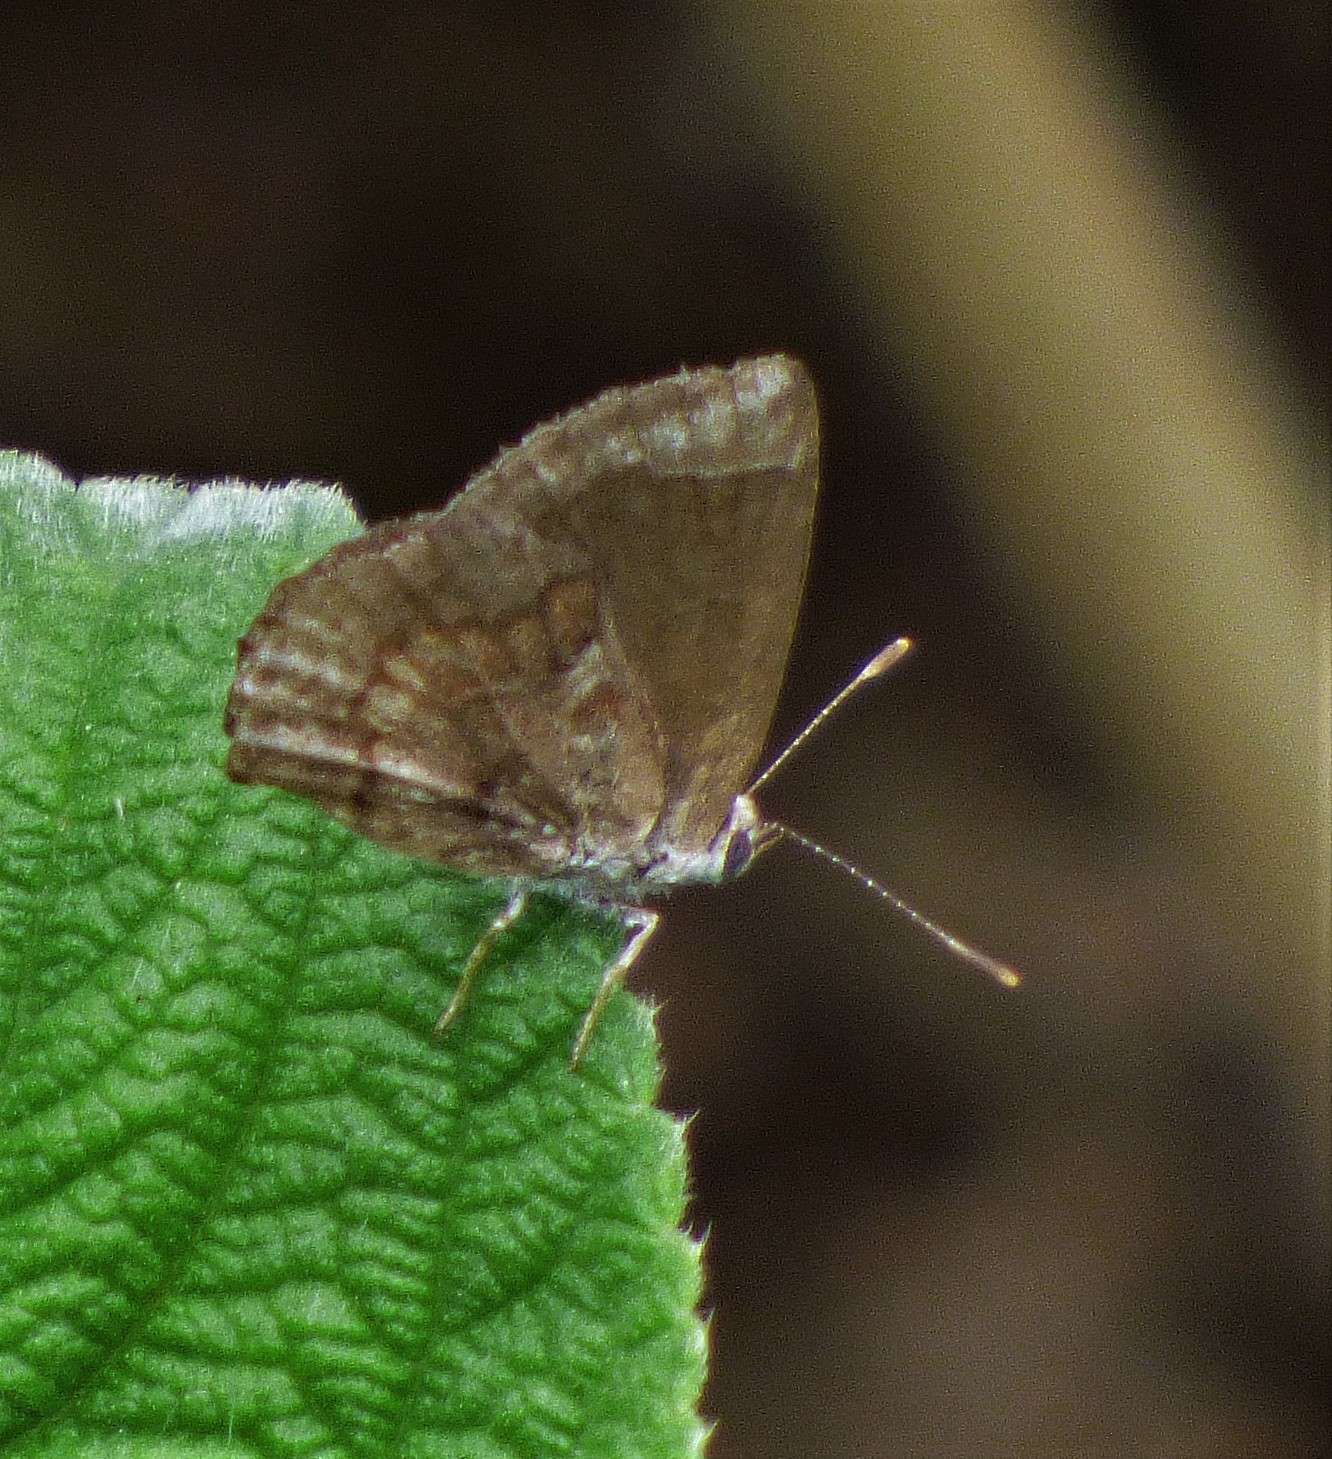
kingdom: Animalia
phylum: Arthropoda
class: Insecta
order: Lepidoptera
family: Lycaenidae
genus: Strymon
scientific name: Strymon bazochii
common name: Lantana scrub-hairstreak
